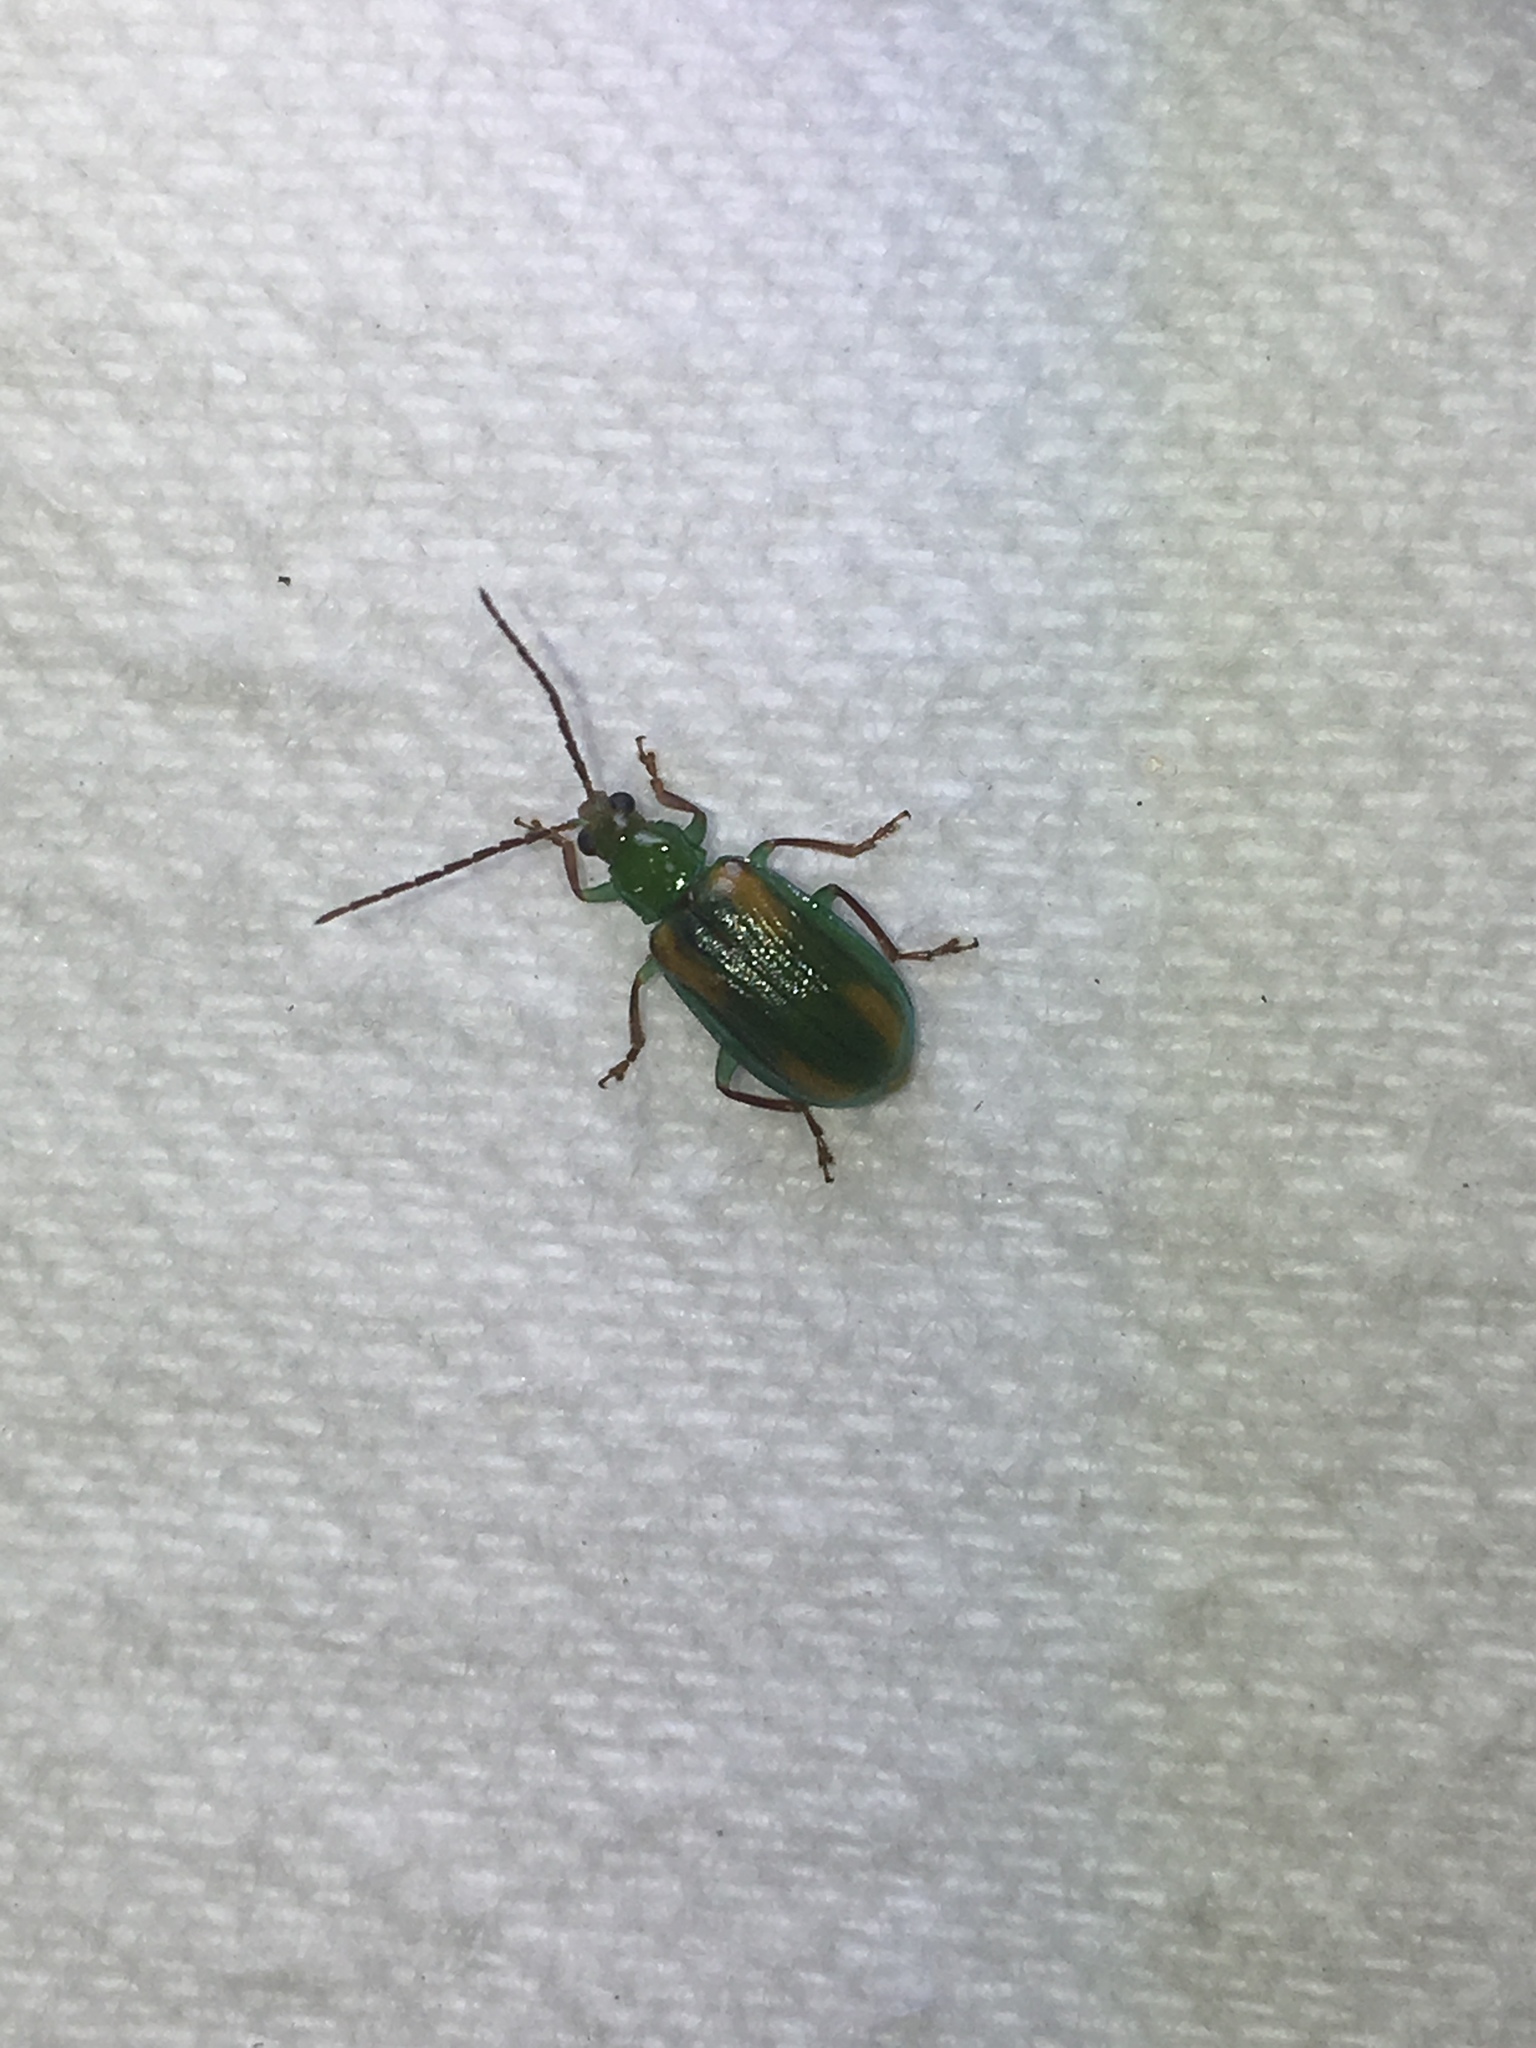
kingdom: Animalia
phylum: Arthropoda
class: Insecta
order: Coleoptera
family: Chrysomelidae
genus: Diabrotica
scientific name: Diabrotica porracea
